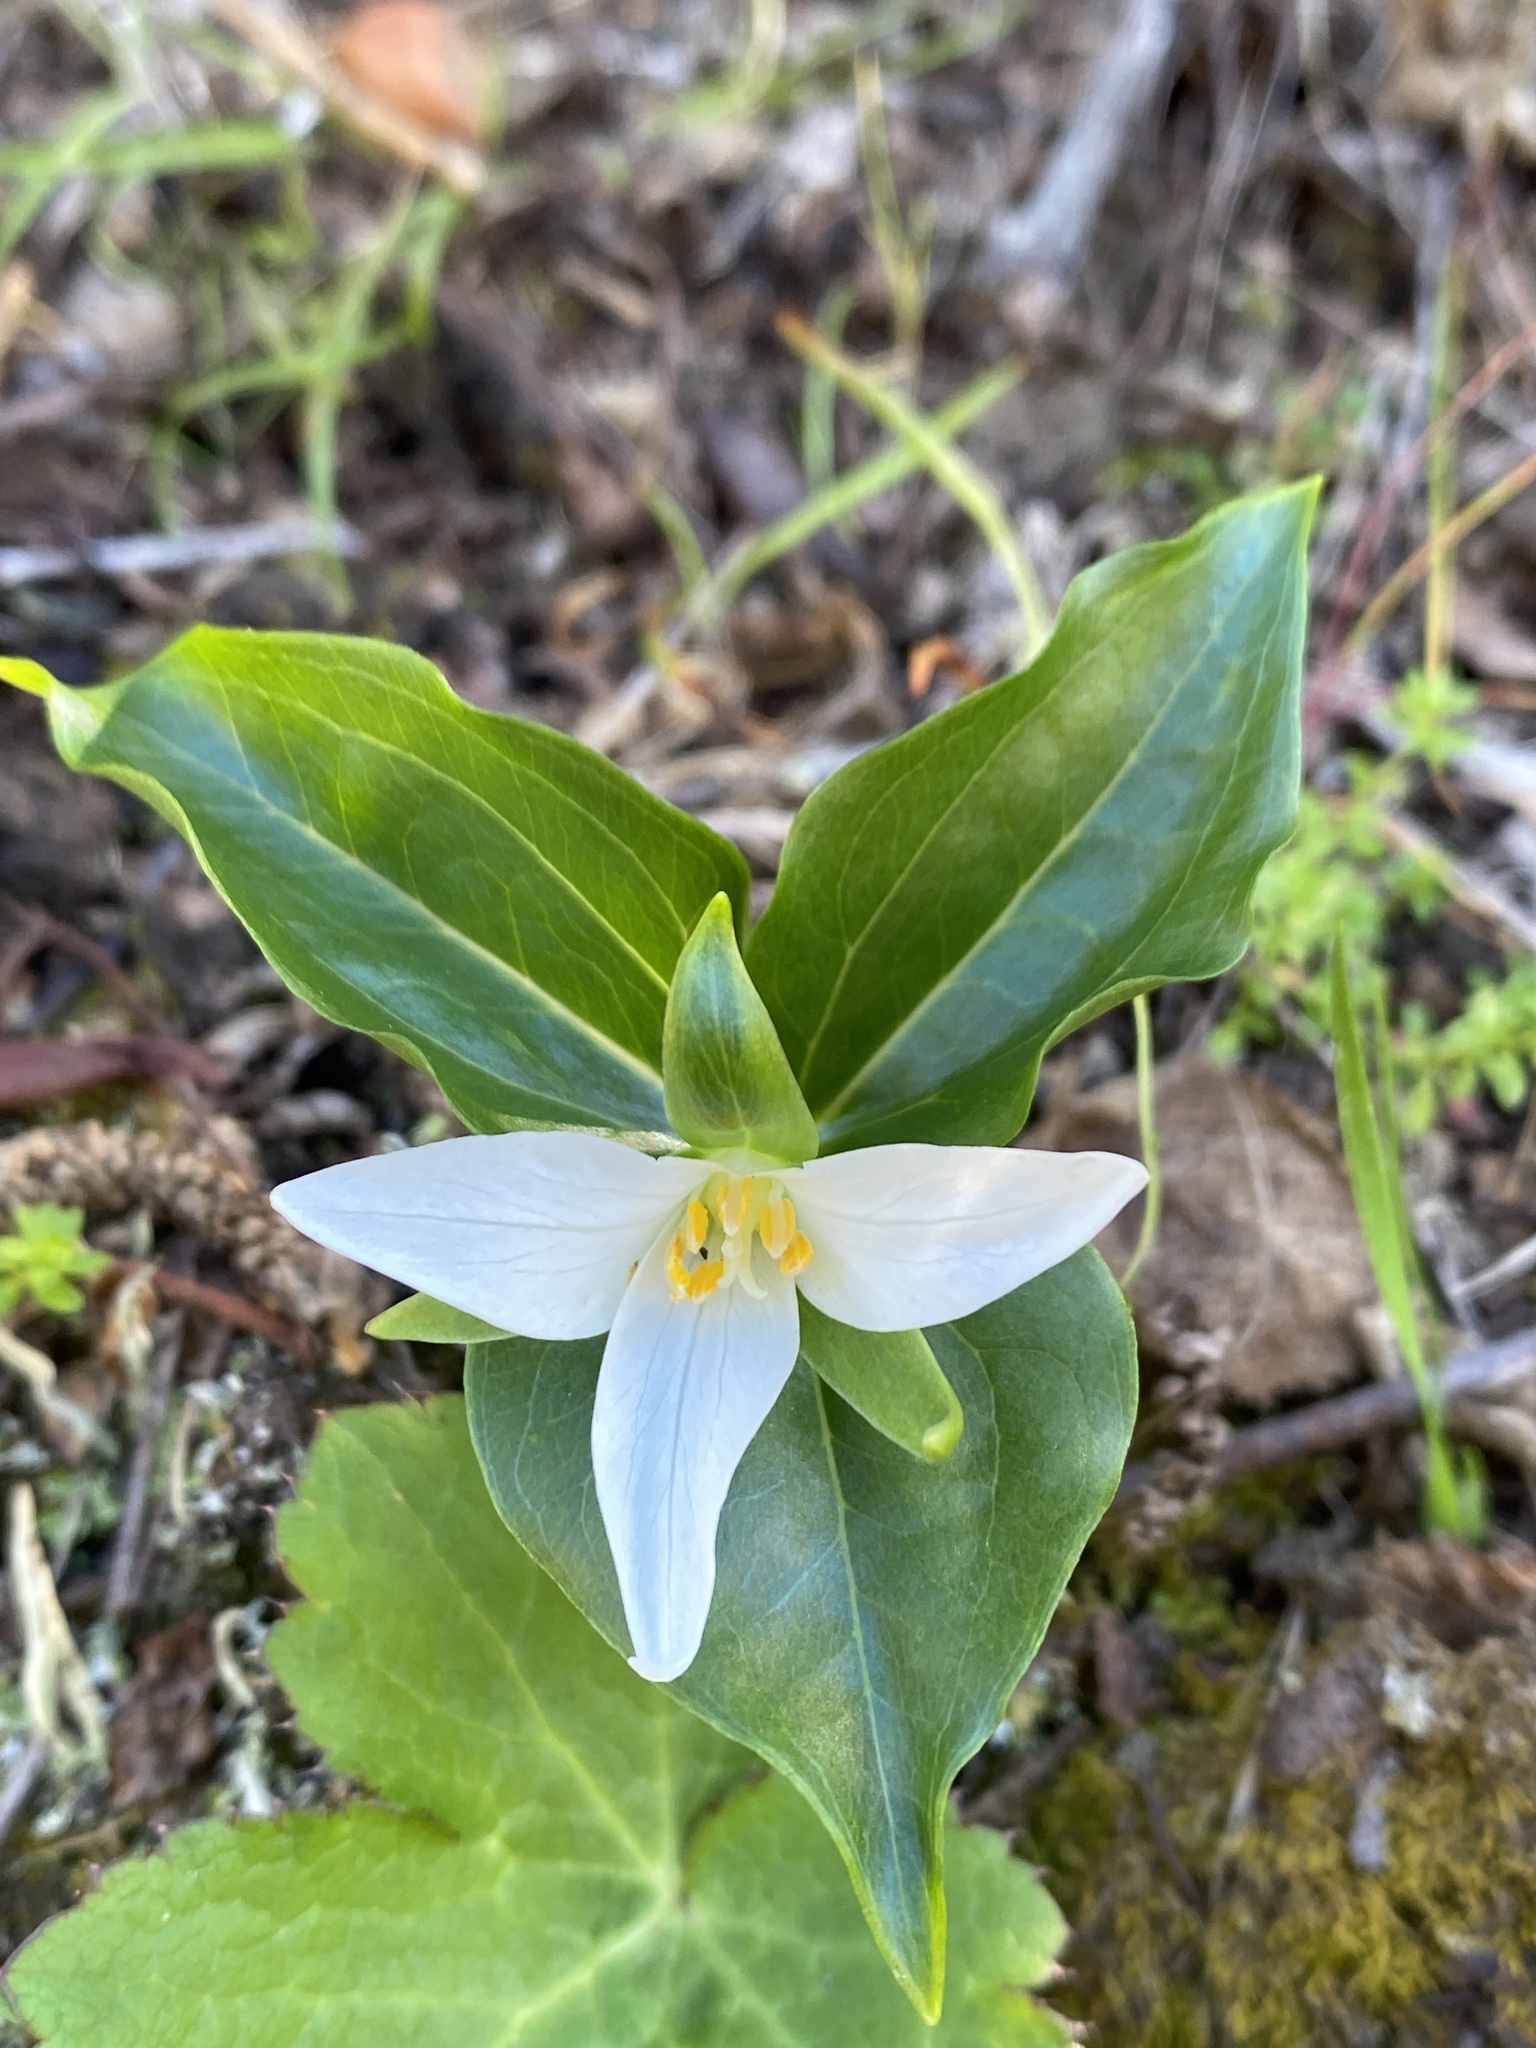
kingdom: Plantae
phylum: Tracheophyta
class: Liliopsida
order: Liliales
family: Melanthiaceae
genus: Trillium
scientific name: Trillium ovatum
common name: Pacific trillium
